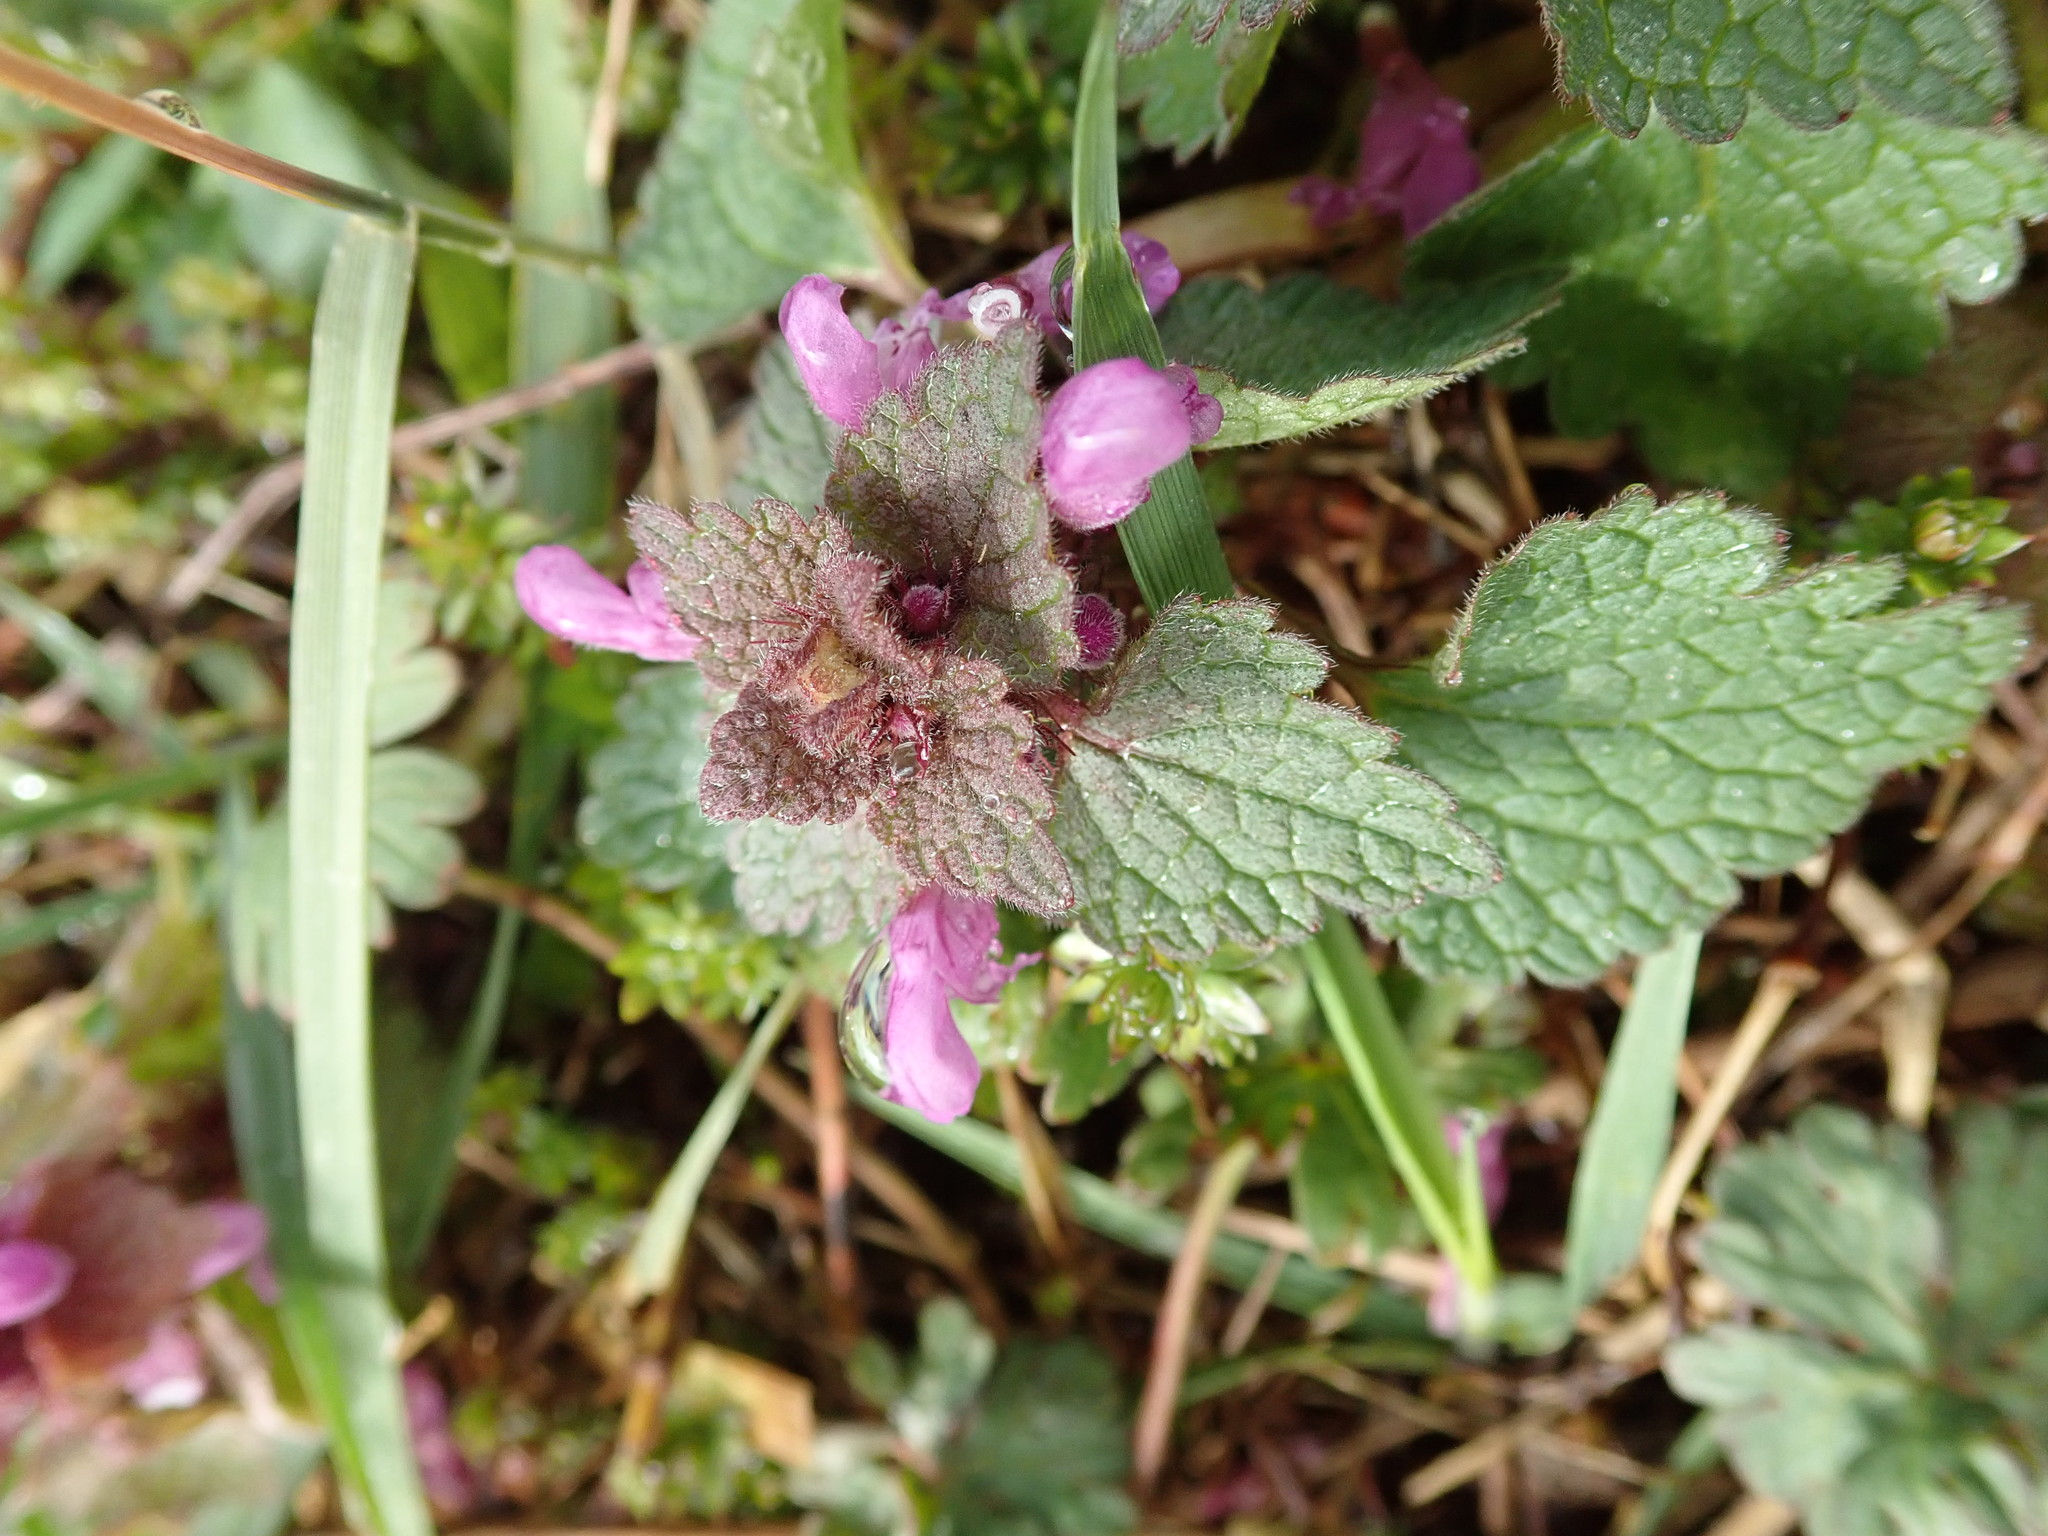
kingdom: Plantae
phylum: Tracheophyta
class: Magnoliopsida
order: Lamiales
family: Lamiaceae
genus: Lamium
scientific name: Lamium purpureum
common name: Red dead-nettle
